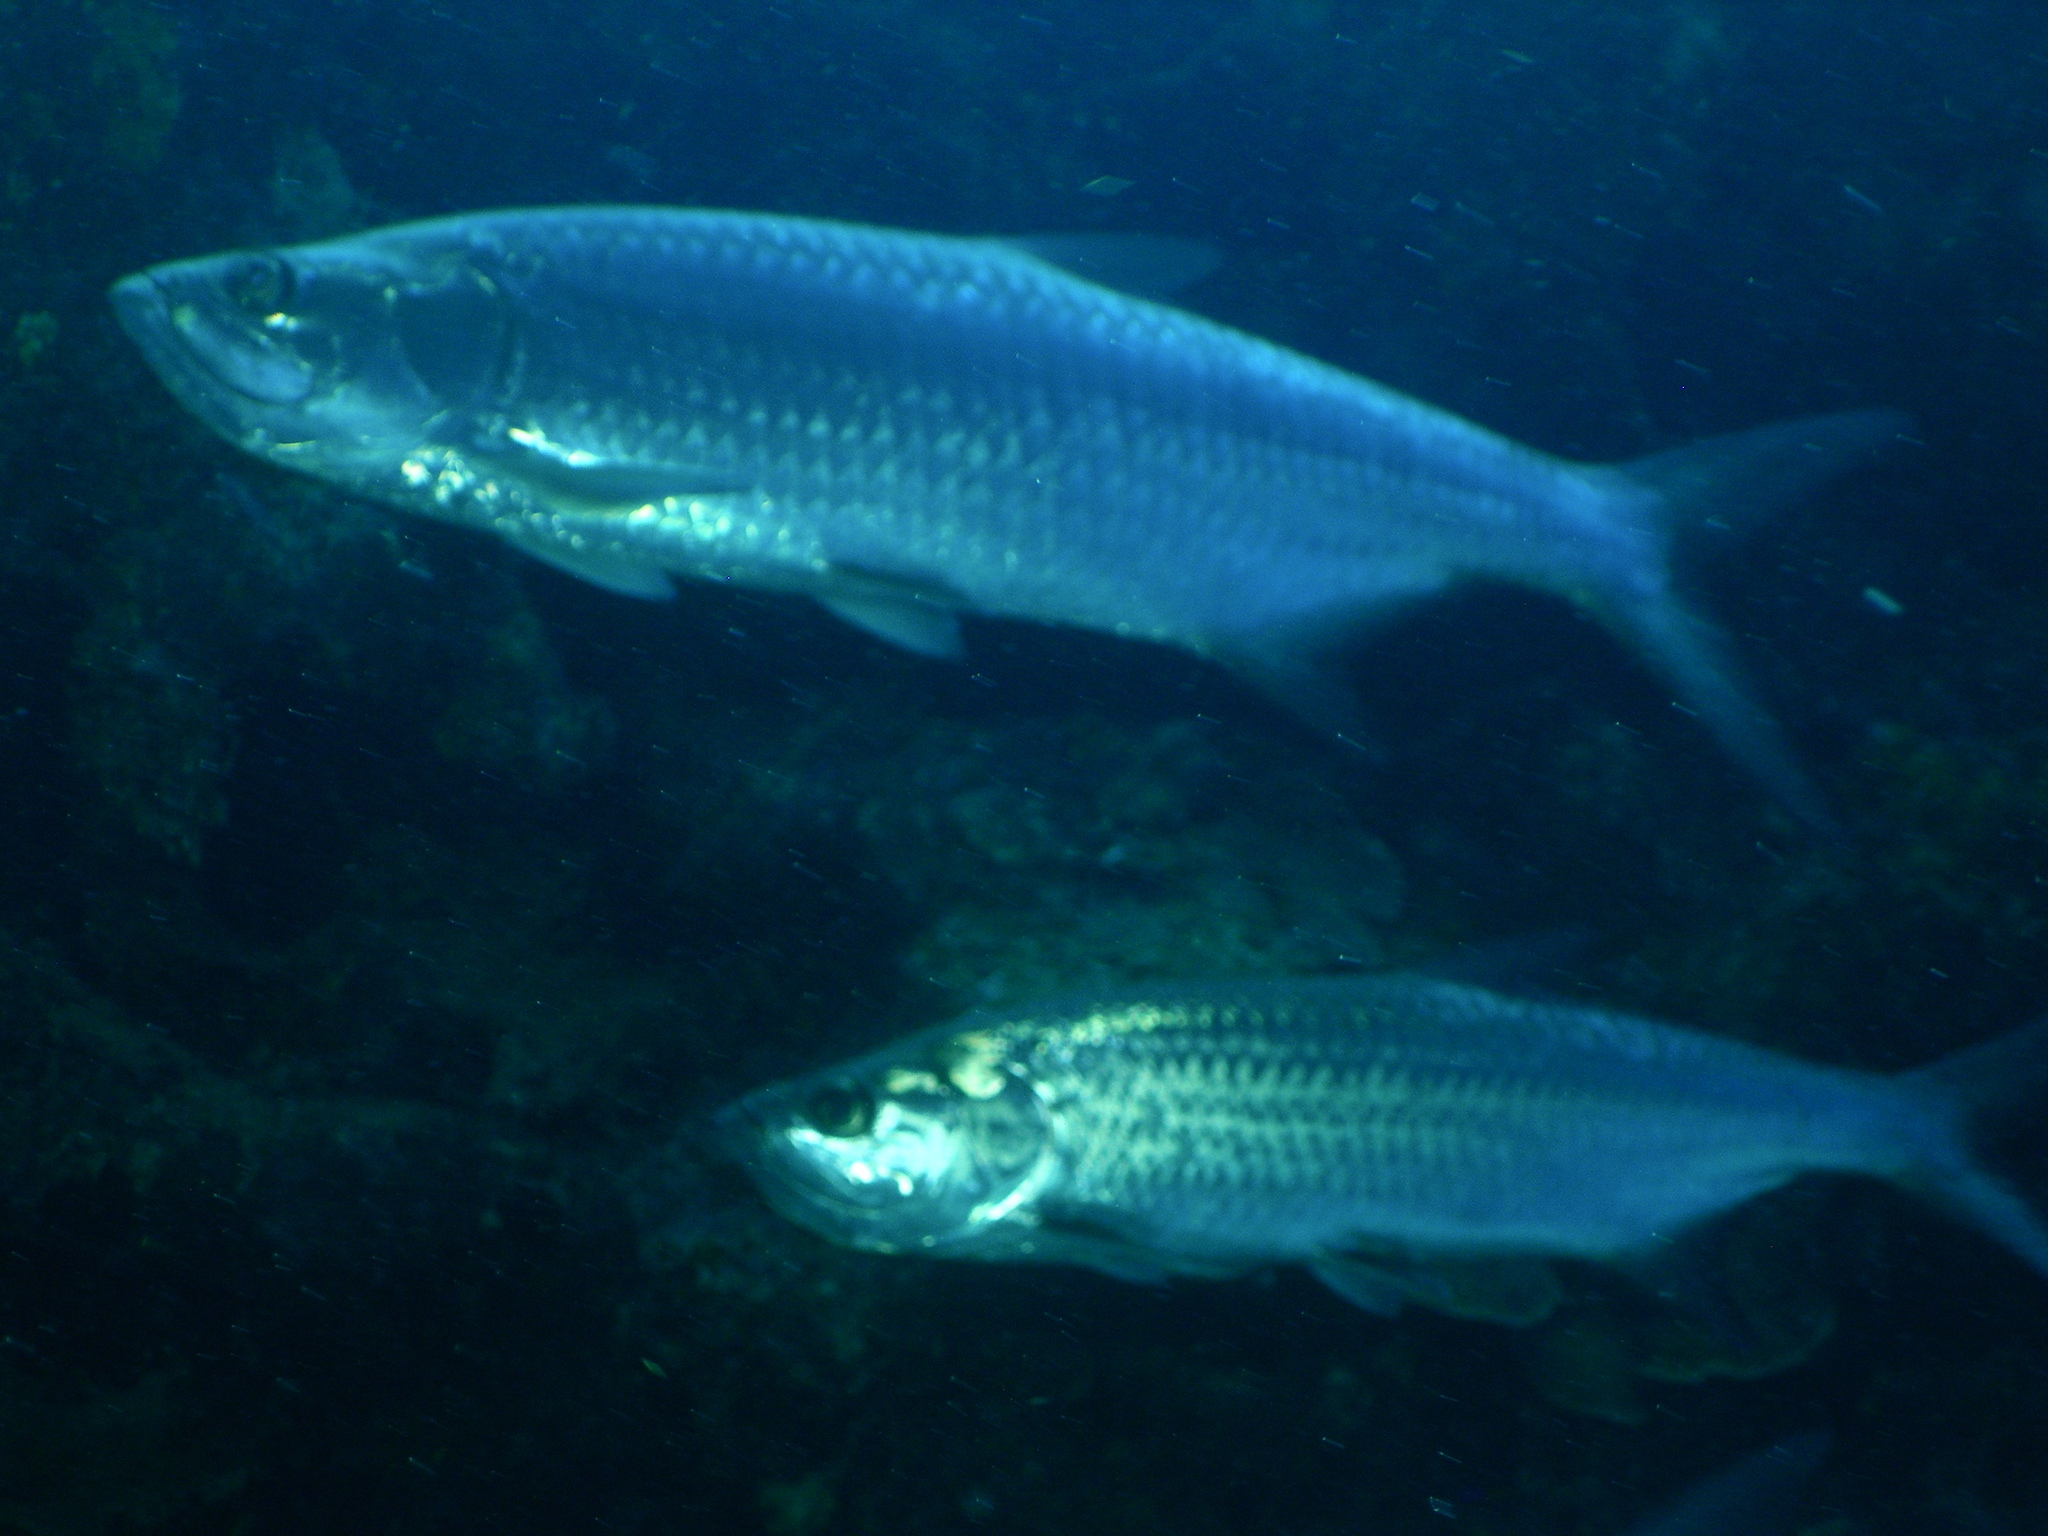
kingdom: Animalia
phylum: Chordata
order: Elopiformes
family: Megalopidae
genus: Megalops
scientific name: Megalops atlanticus
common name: Tarpon
